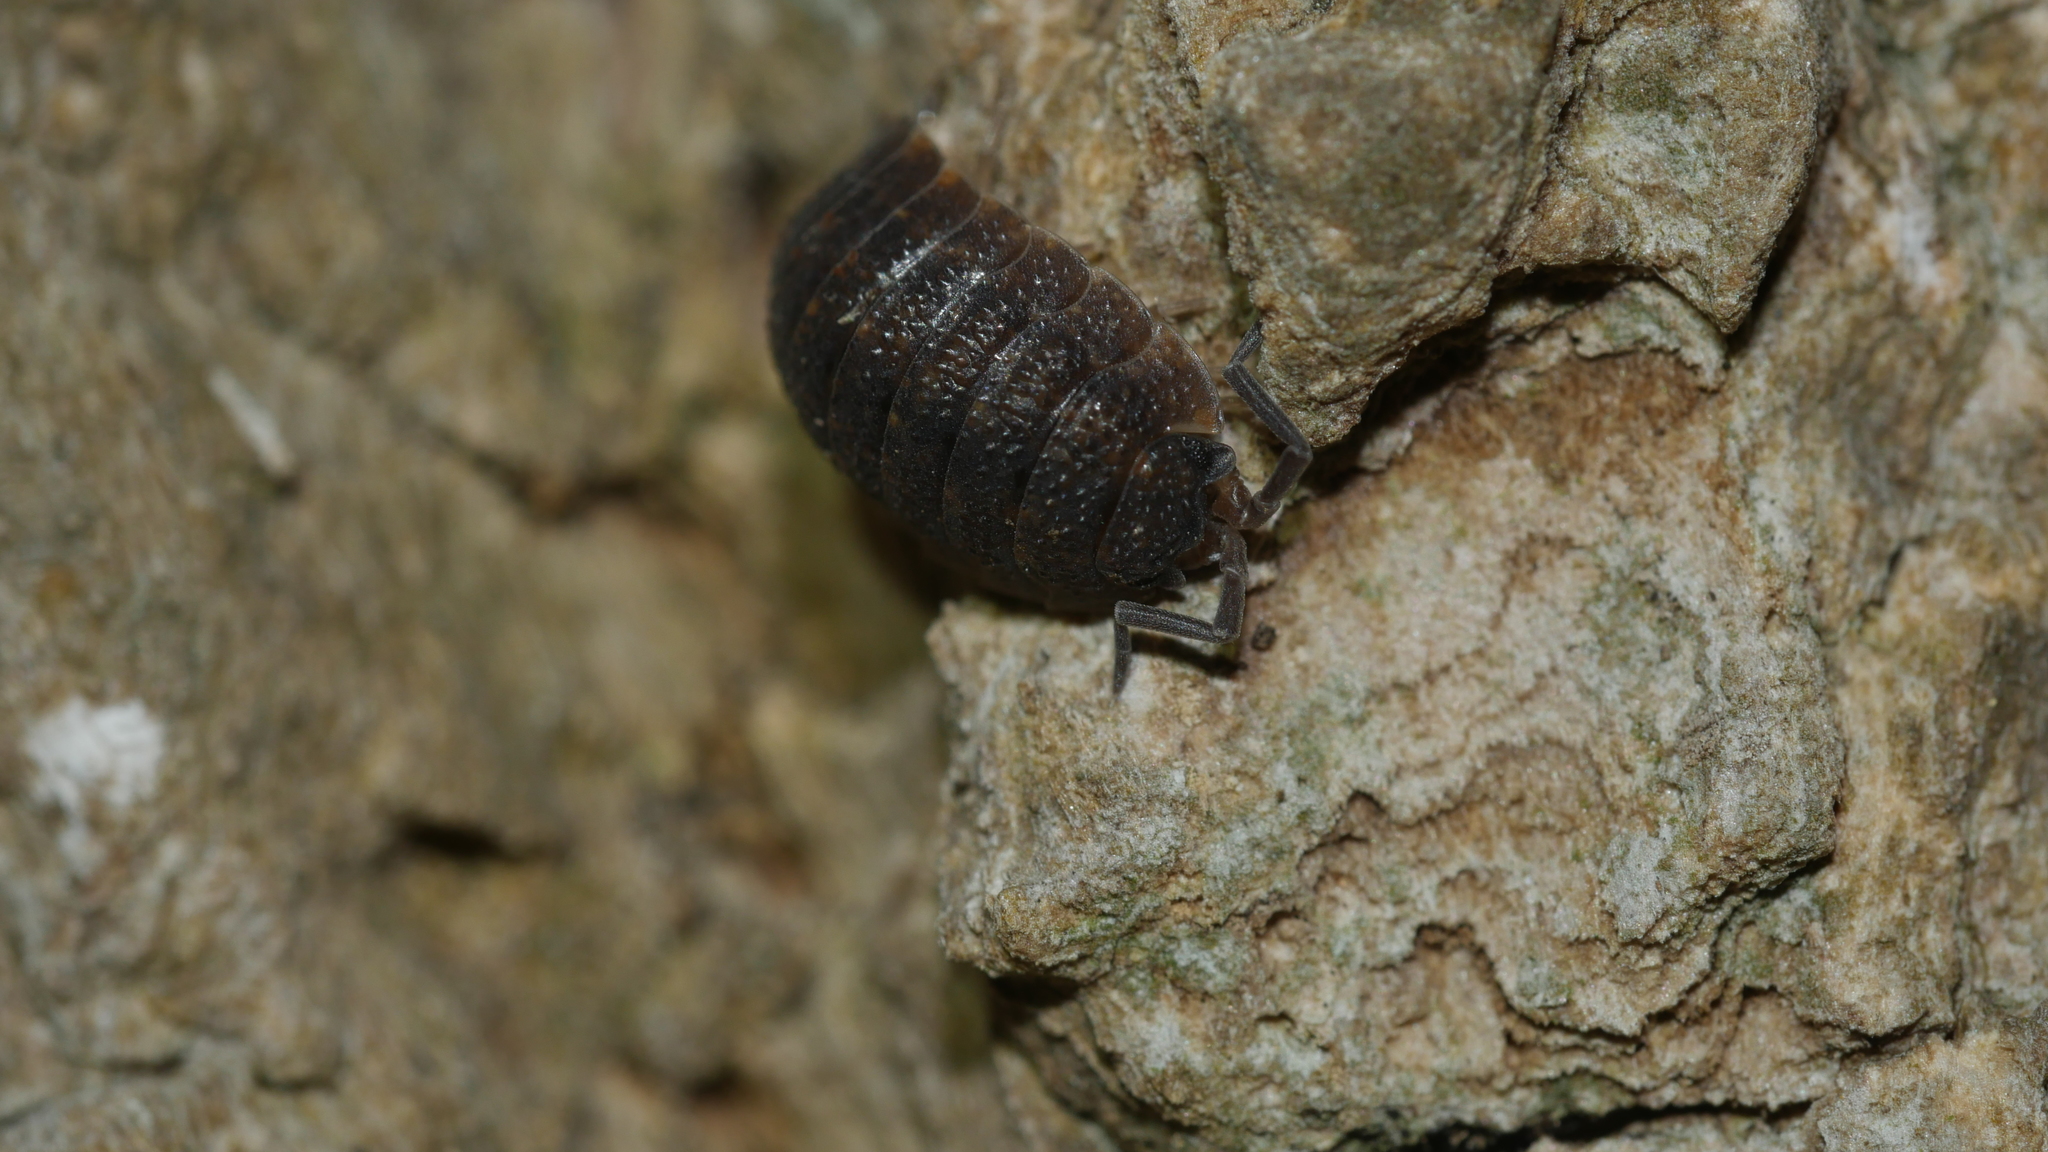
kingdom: Animalia
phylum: Arthropoda
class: Malacostraca
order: Isopoda
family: Porcellionidae
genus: Porcellio
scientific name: Porcellio scaber
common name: Common rough woodlouse
